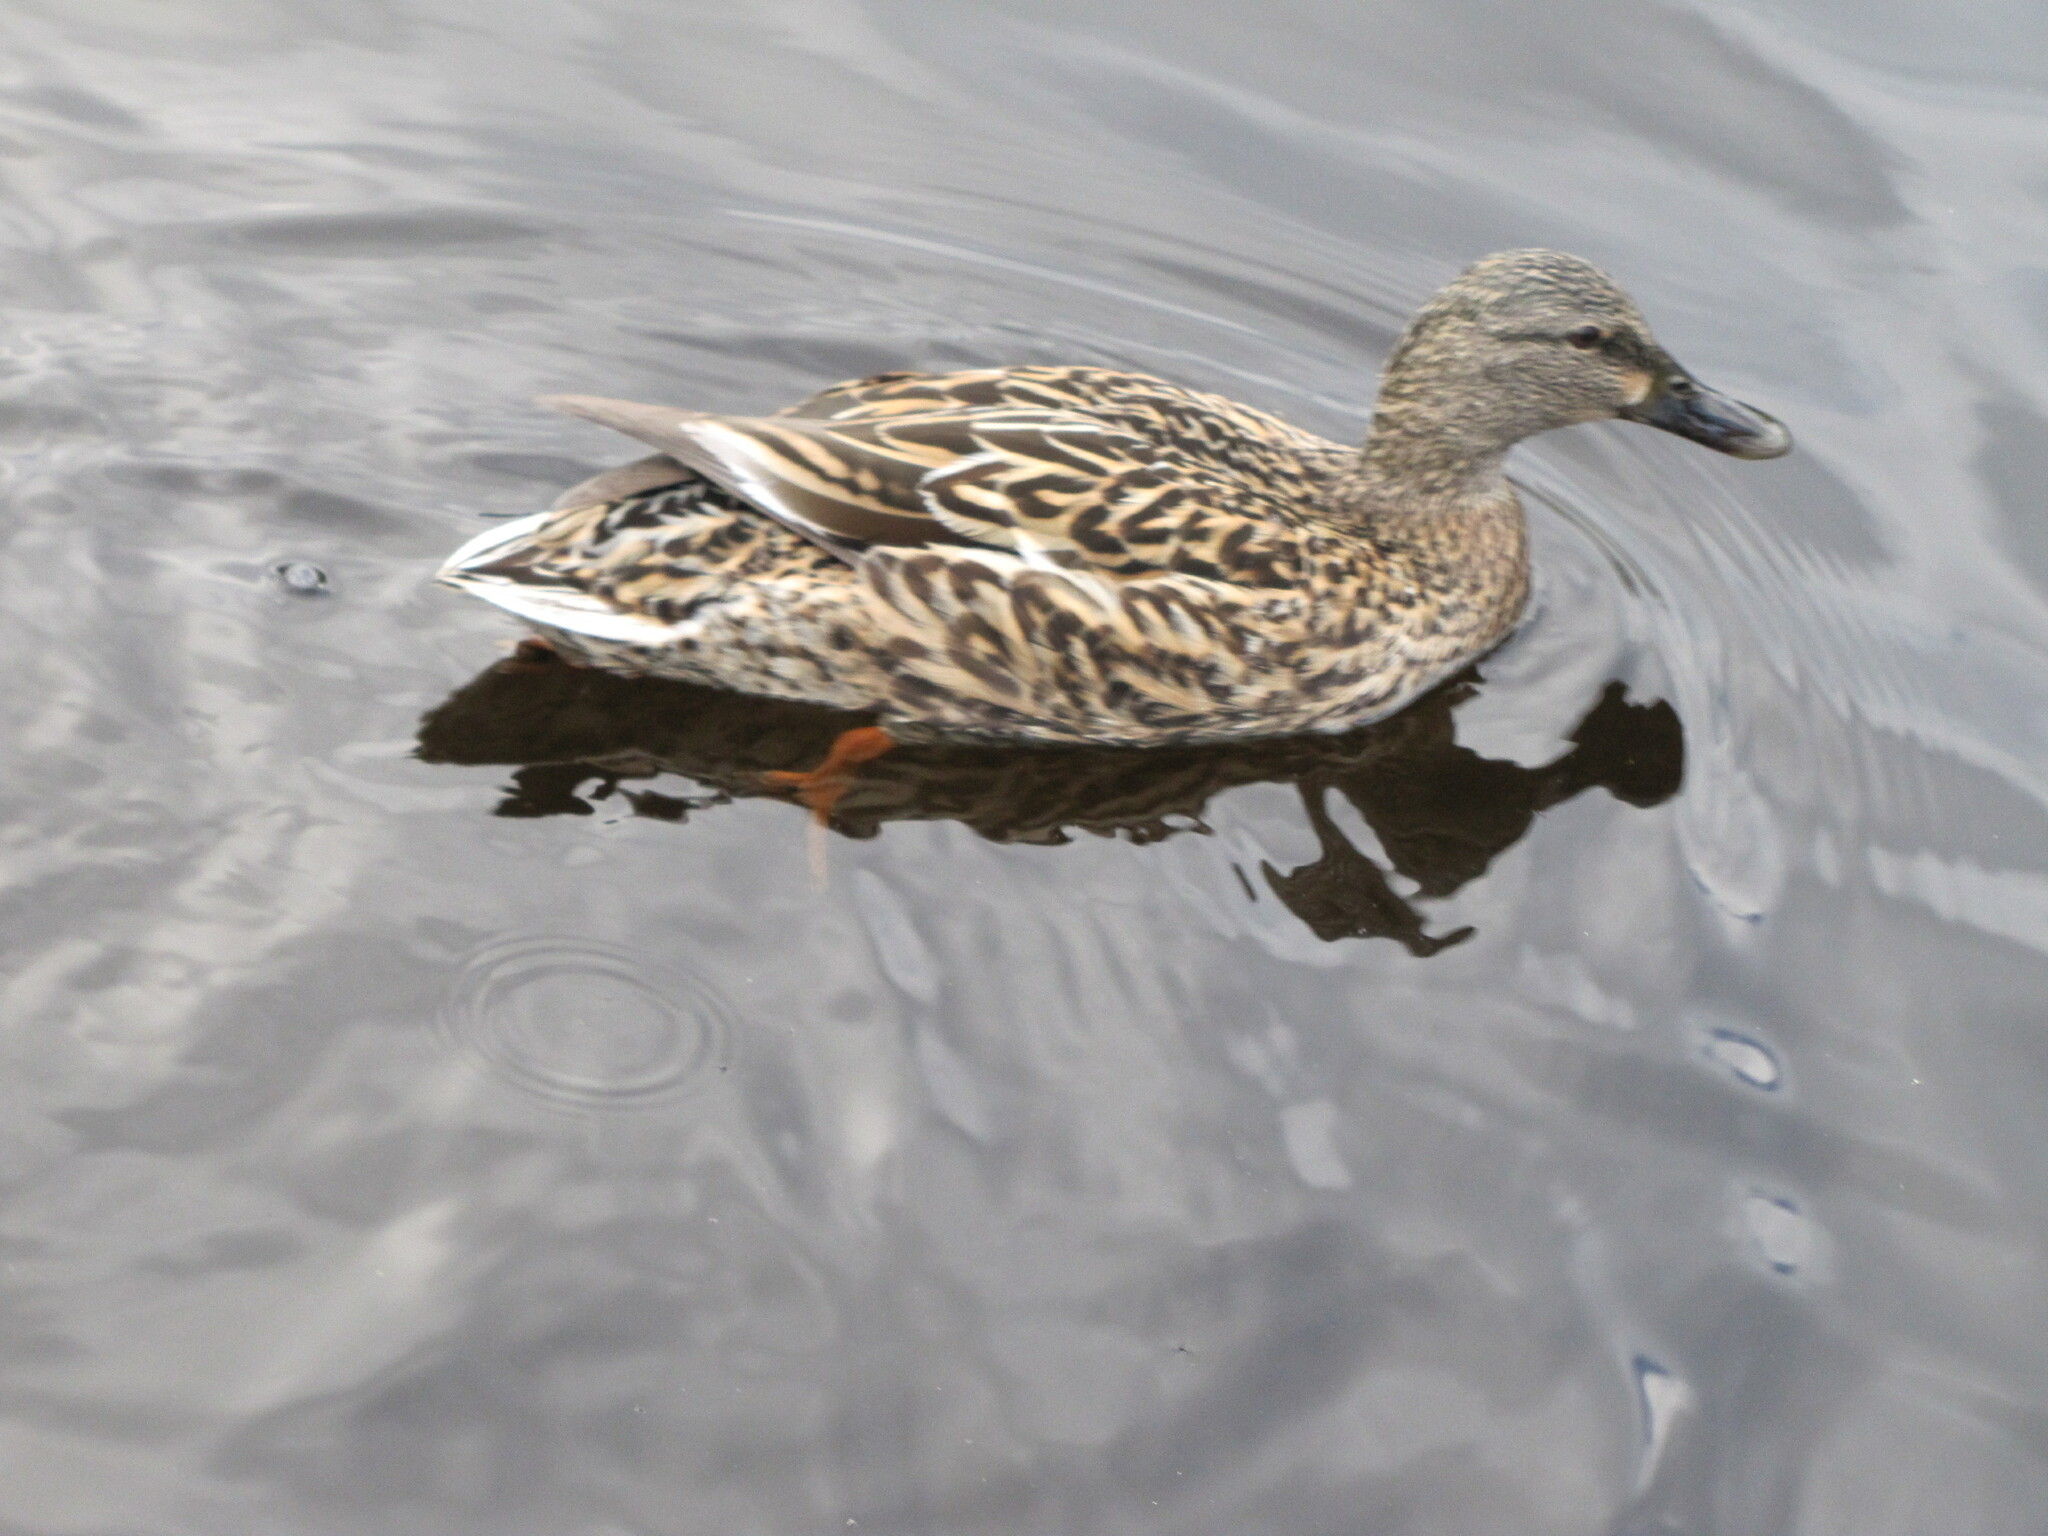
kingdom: Animalia
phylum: Chordata
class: Aves
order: Anseriformes
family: Anatidae
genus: Anas
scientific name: Anas platyrhynchos
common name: Mallard
